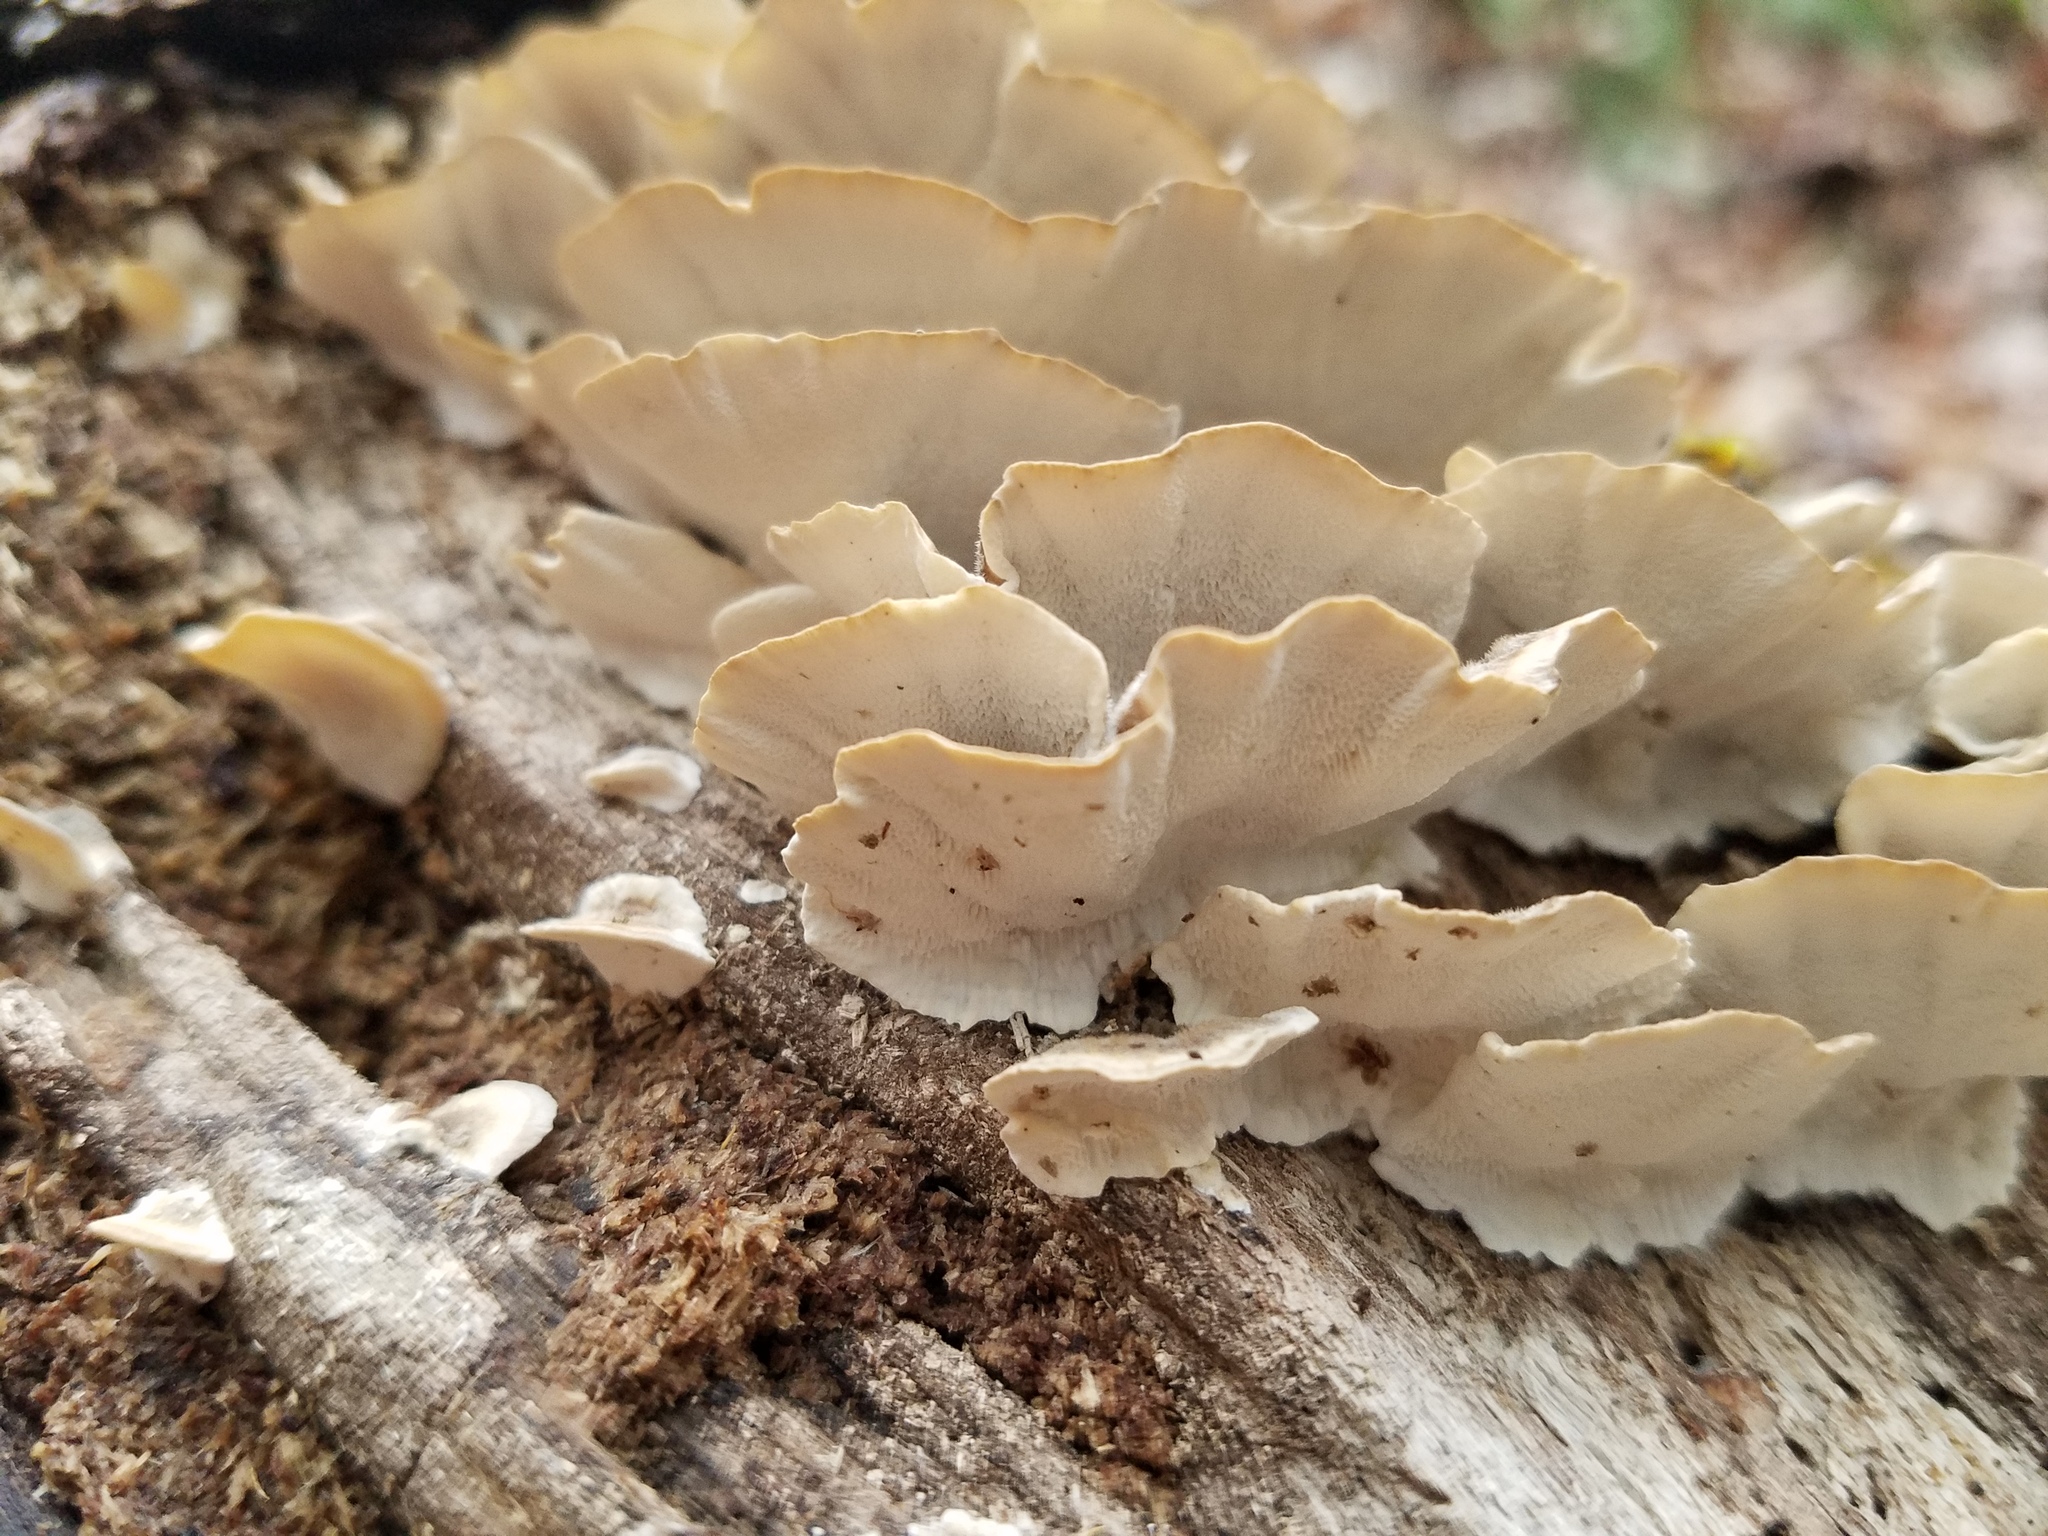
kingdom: Fungi
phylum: Basidiomycota
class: Agaricomycetes
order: Polyporales
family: Polyporaceae
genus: Trametes
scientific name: Trametes versicolor
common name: Turkeytail
